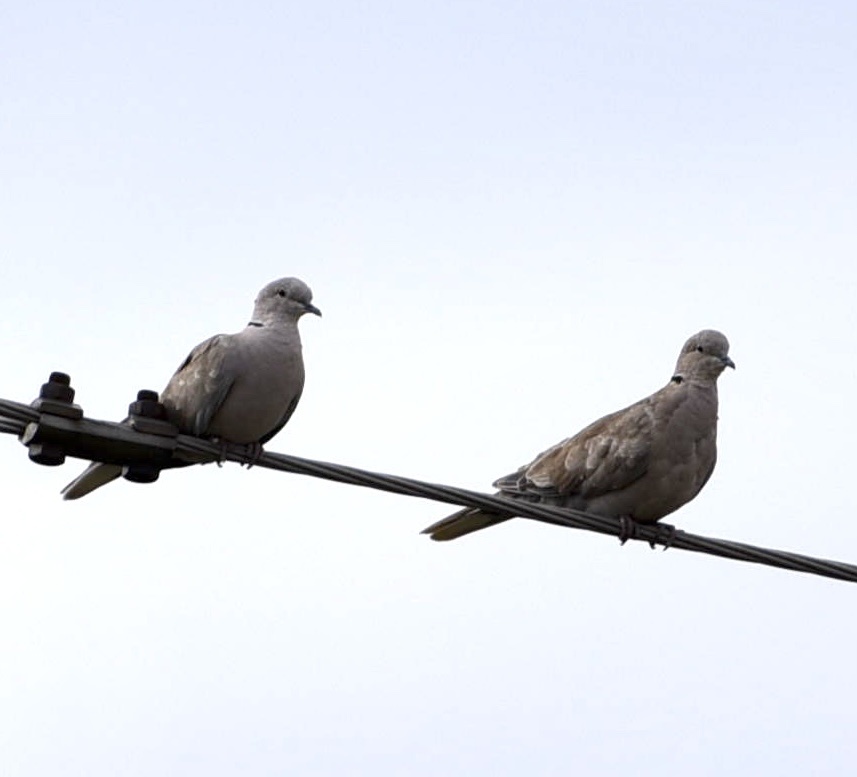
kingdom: Animalia
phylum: Chordata
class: Aves
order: Columbiformes
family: Columbidae
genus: Streptopelia
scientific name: Streptopelia decaocto
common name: Eurasian collared dove
